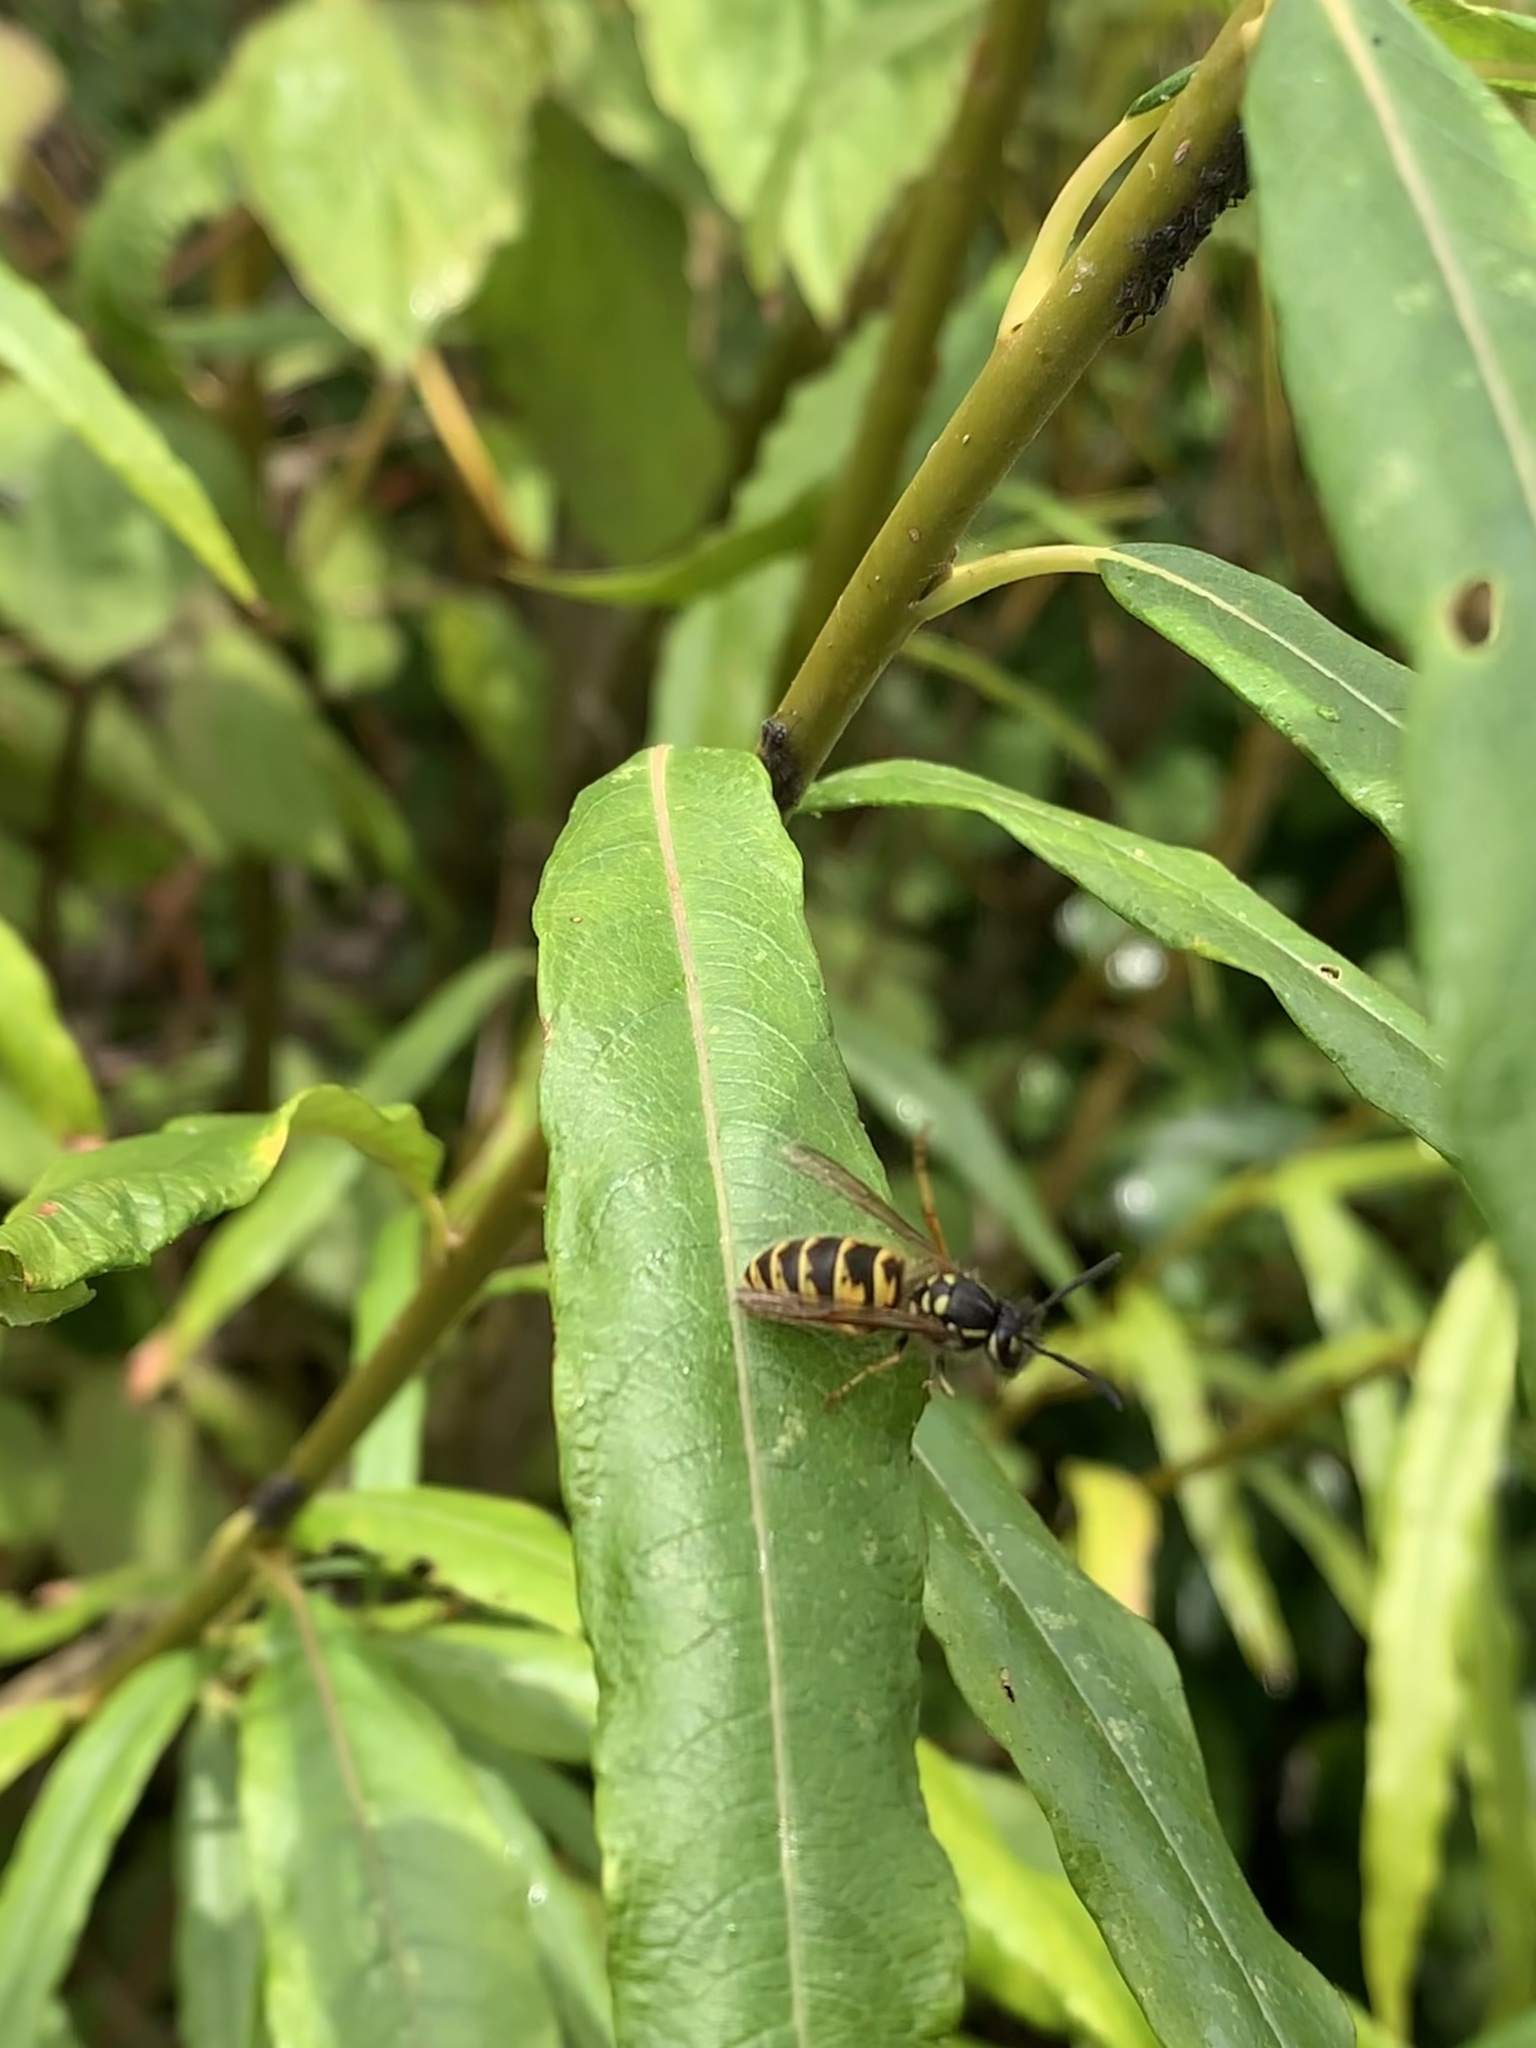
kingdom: Animalia
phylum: Arthropoda
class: Insecta
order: Hymenoptera
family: Vespidae
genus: Vespula
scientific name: Vespula vulgaris
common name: Common wasp
